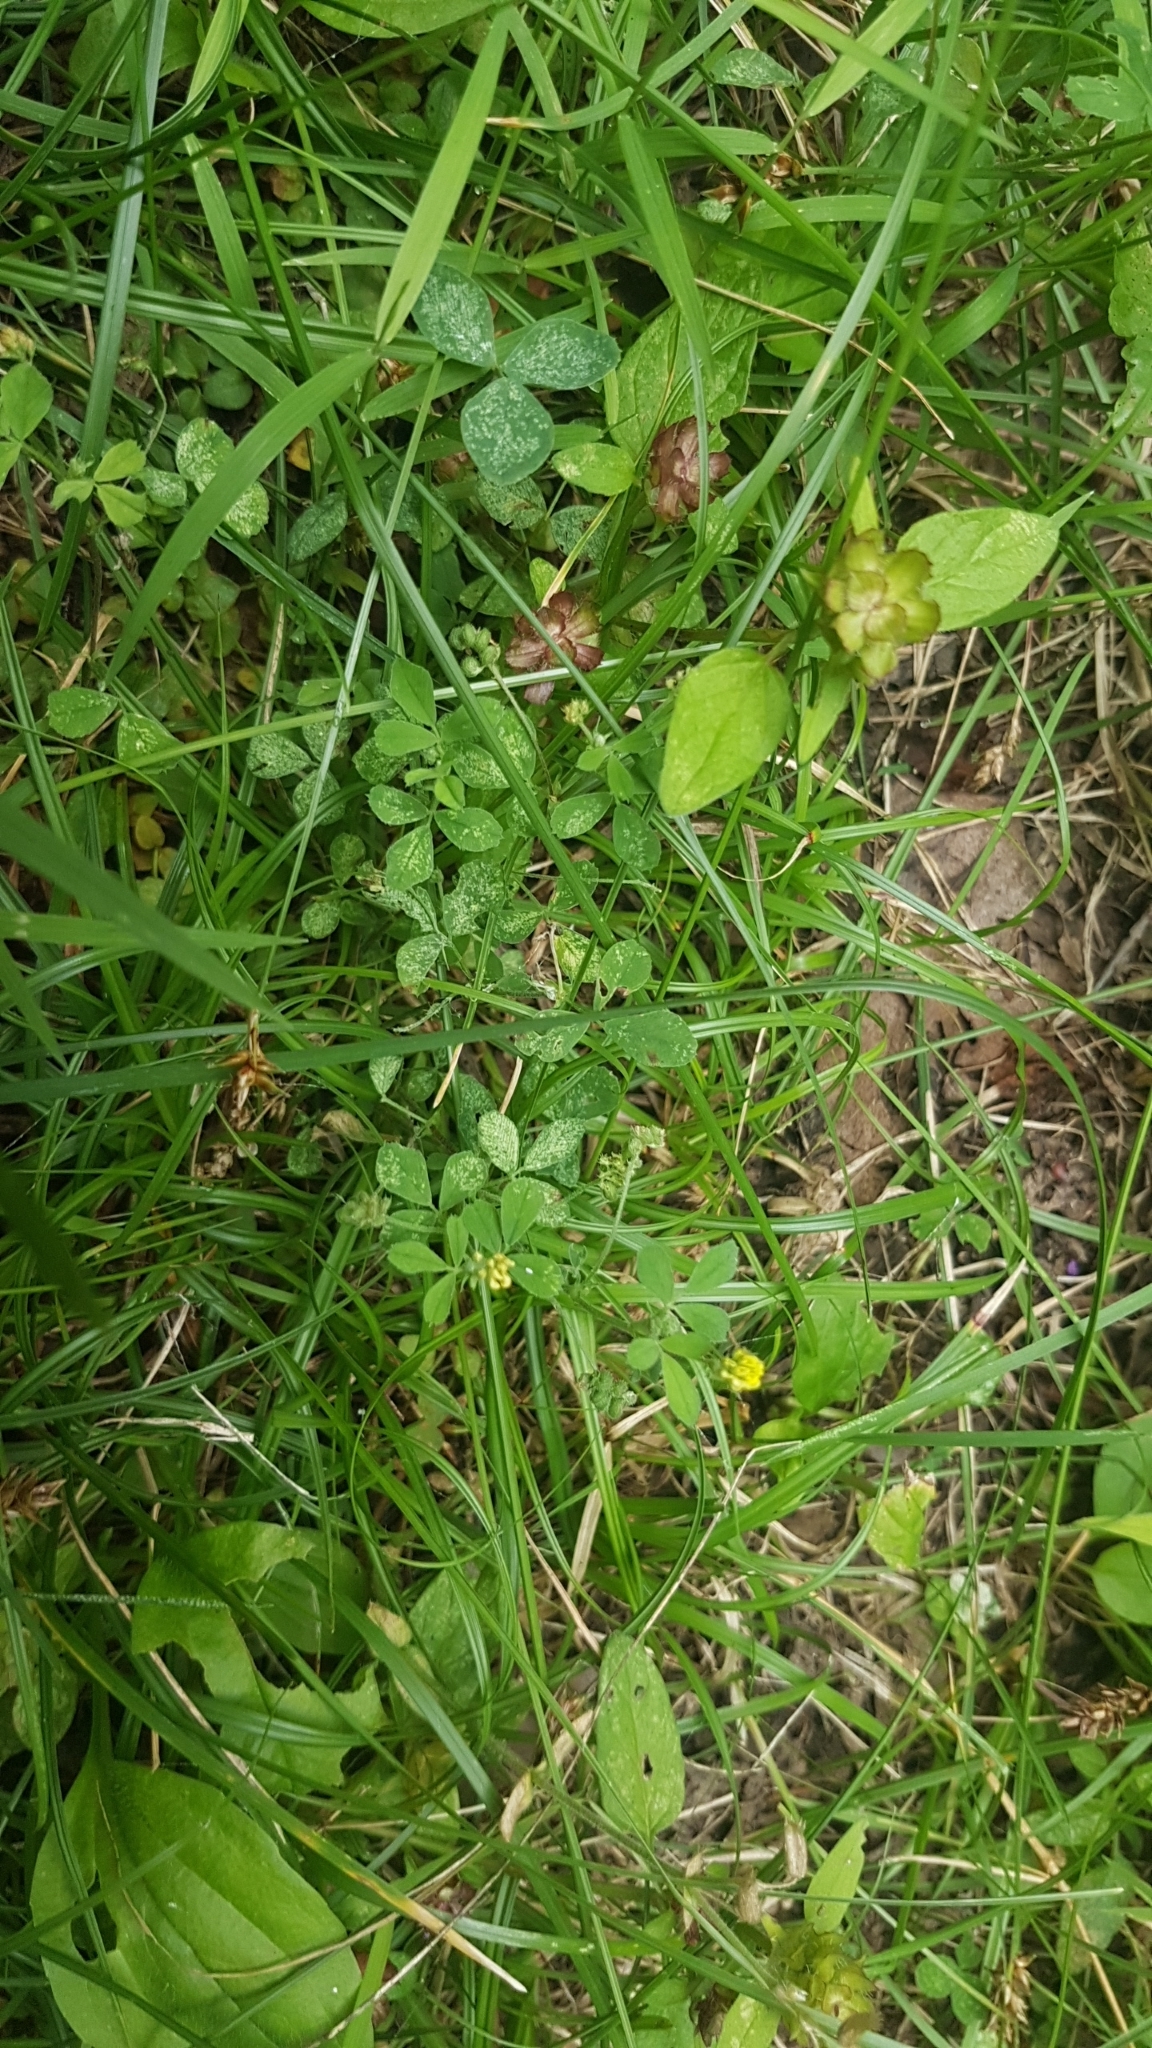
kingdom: Plantae
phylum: Tracheophyta
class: Magnoliopsida
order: Fabales
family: Fabaceae
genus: Medicago
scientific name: Medicago lupulina
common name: Black medick
